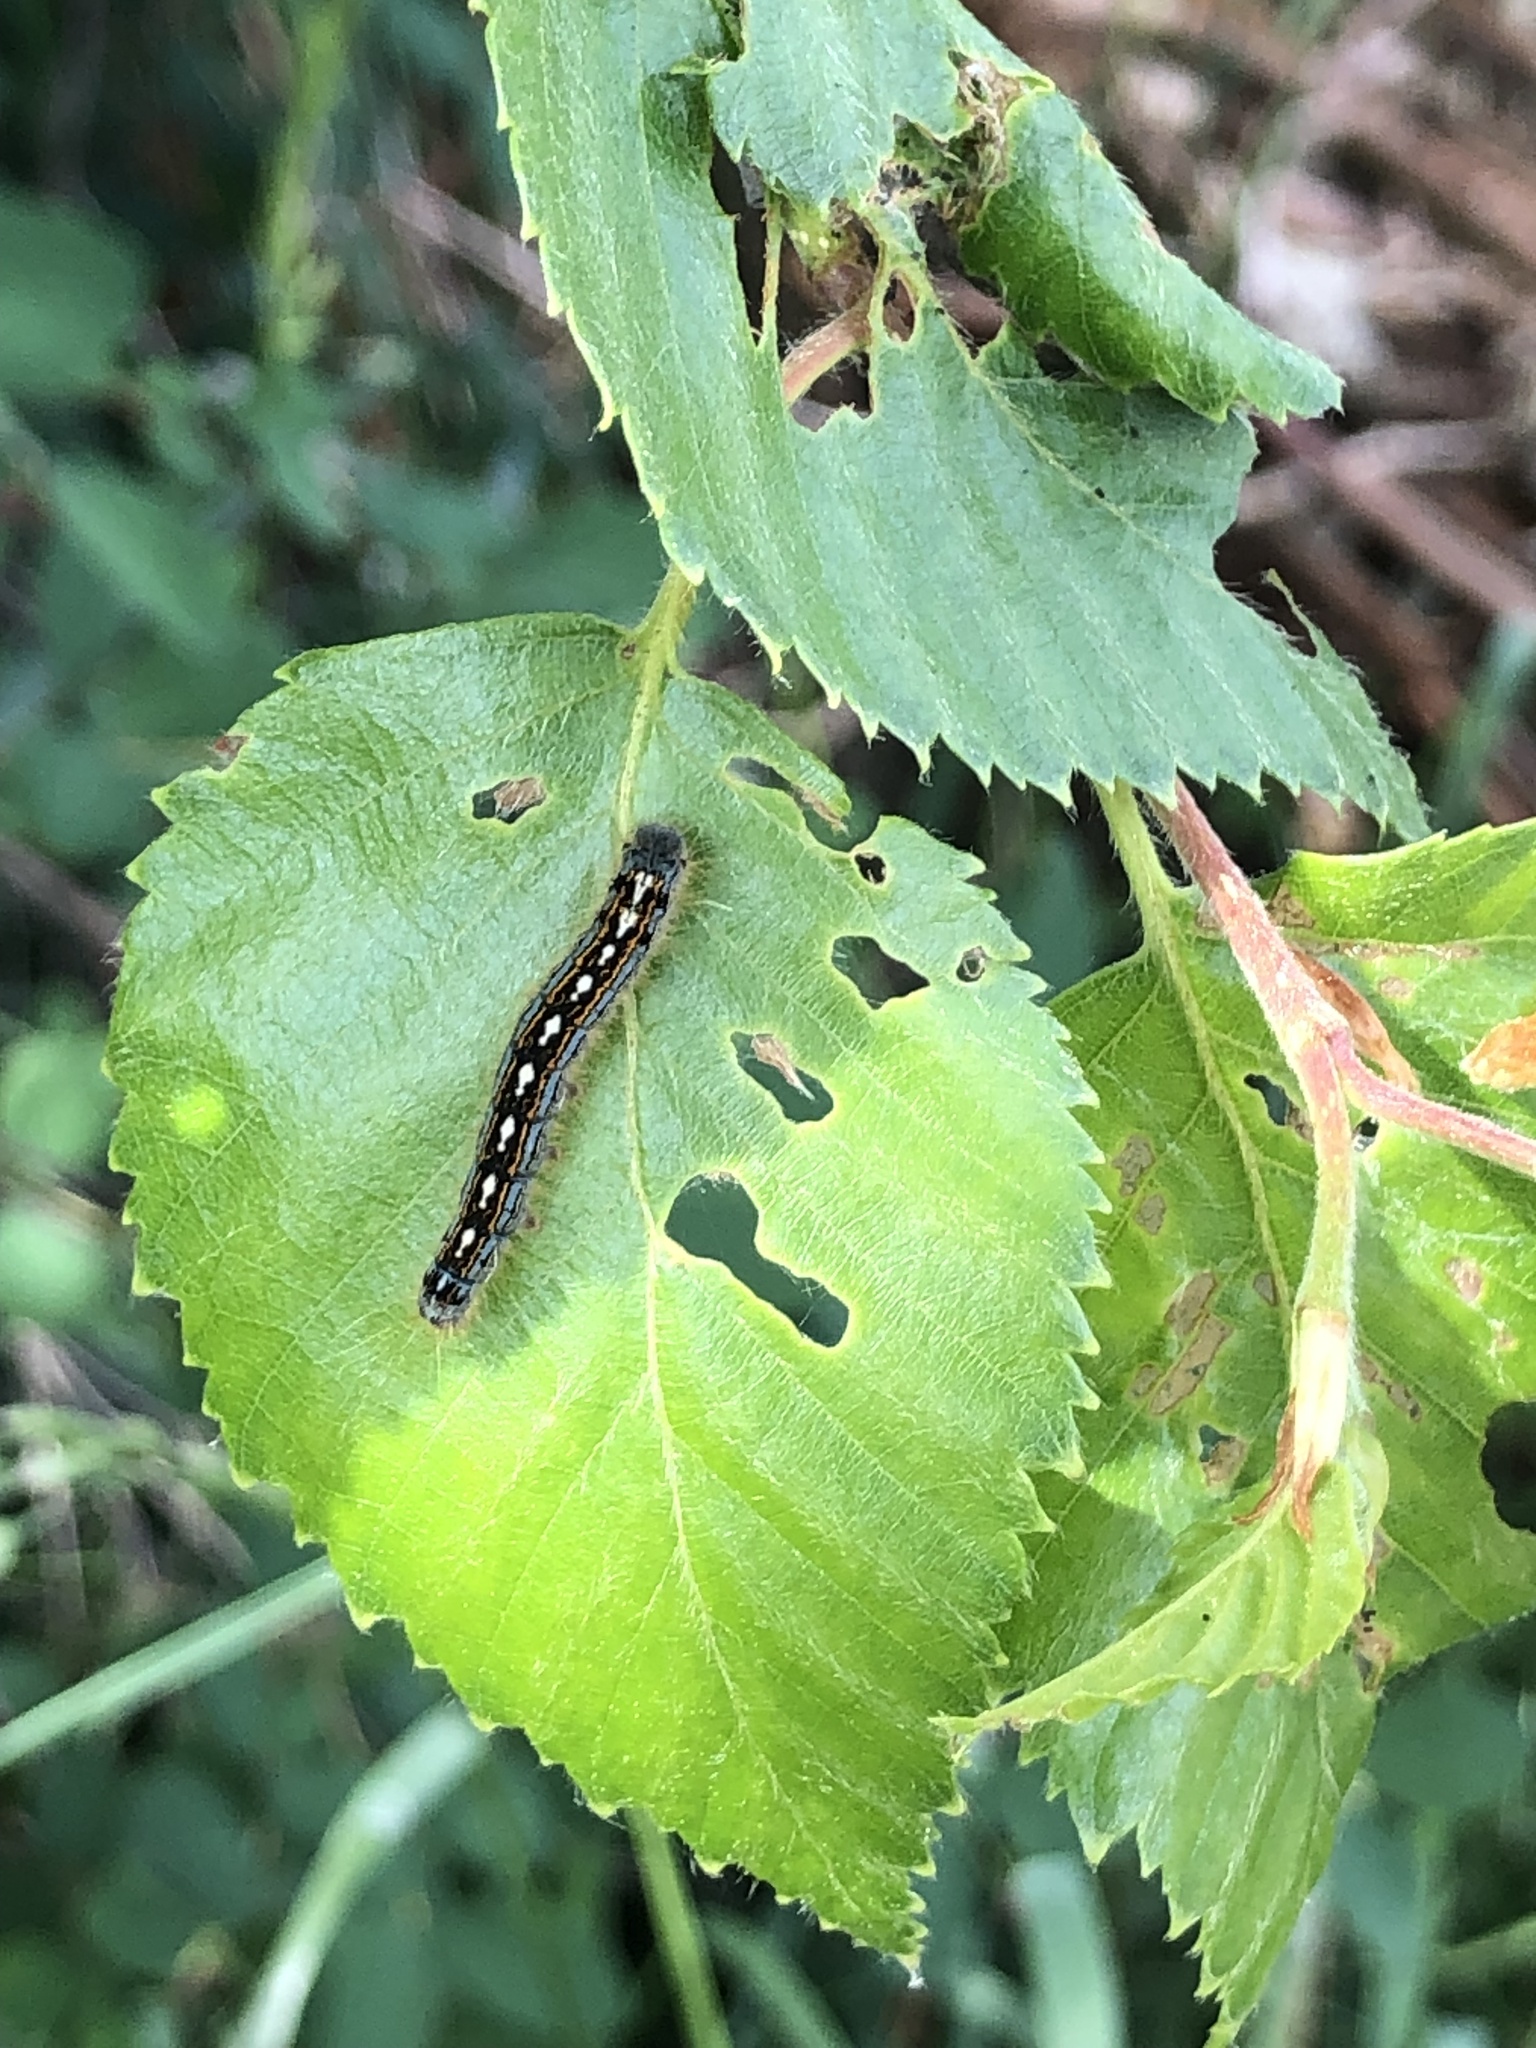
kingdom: Animalia
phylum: Arthropoda
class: Insecta
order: Lepidoptera
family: Lasiocampidae
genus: Malacosoma
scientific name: Malacosoma disstria
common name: Forest tent caterpillar
